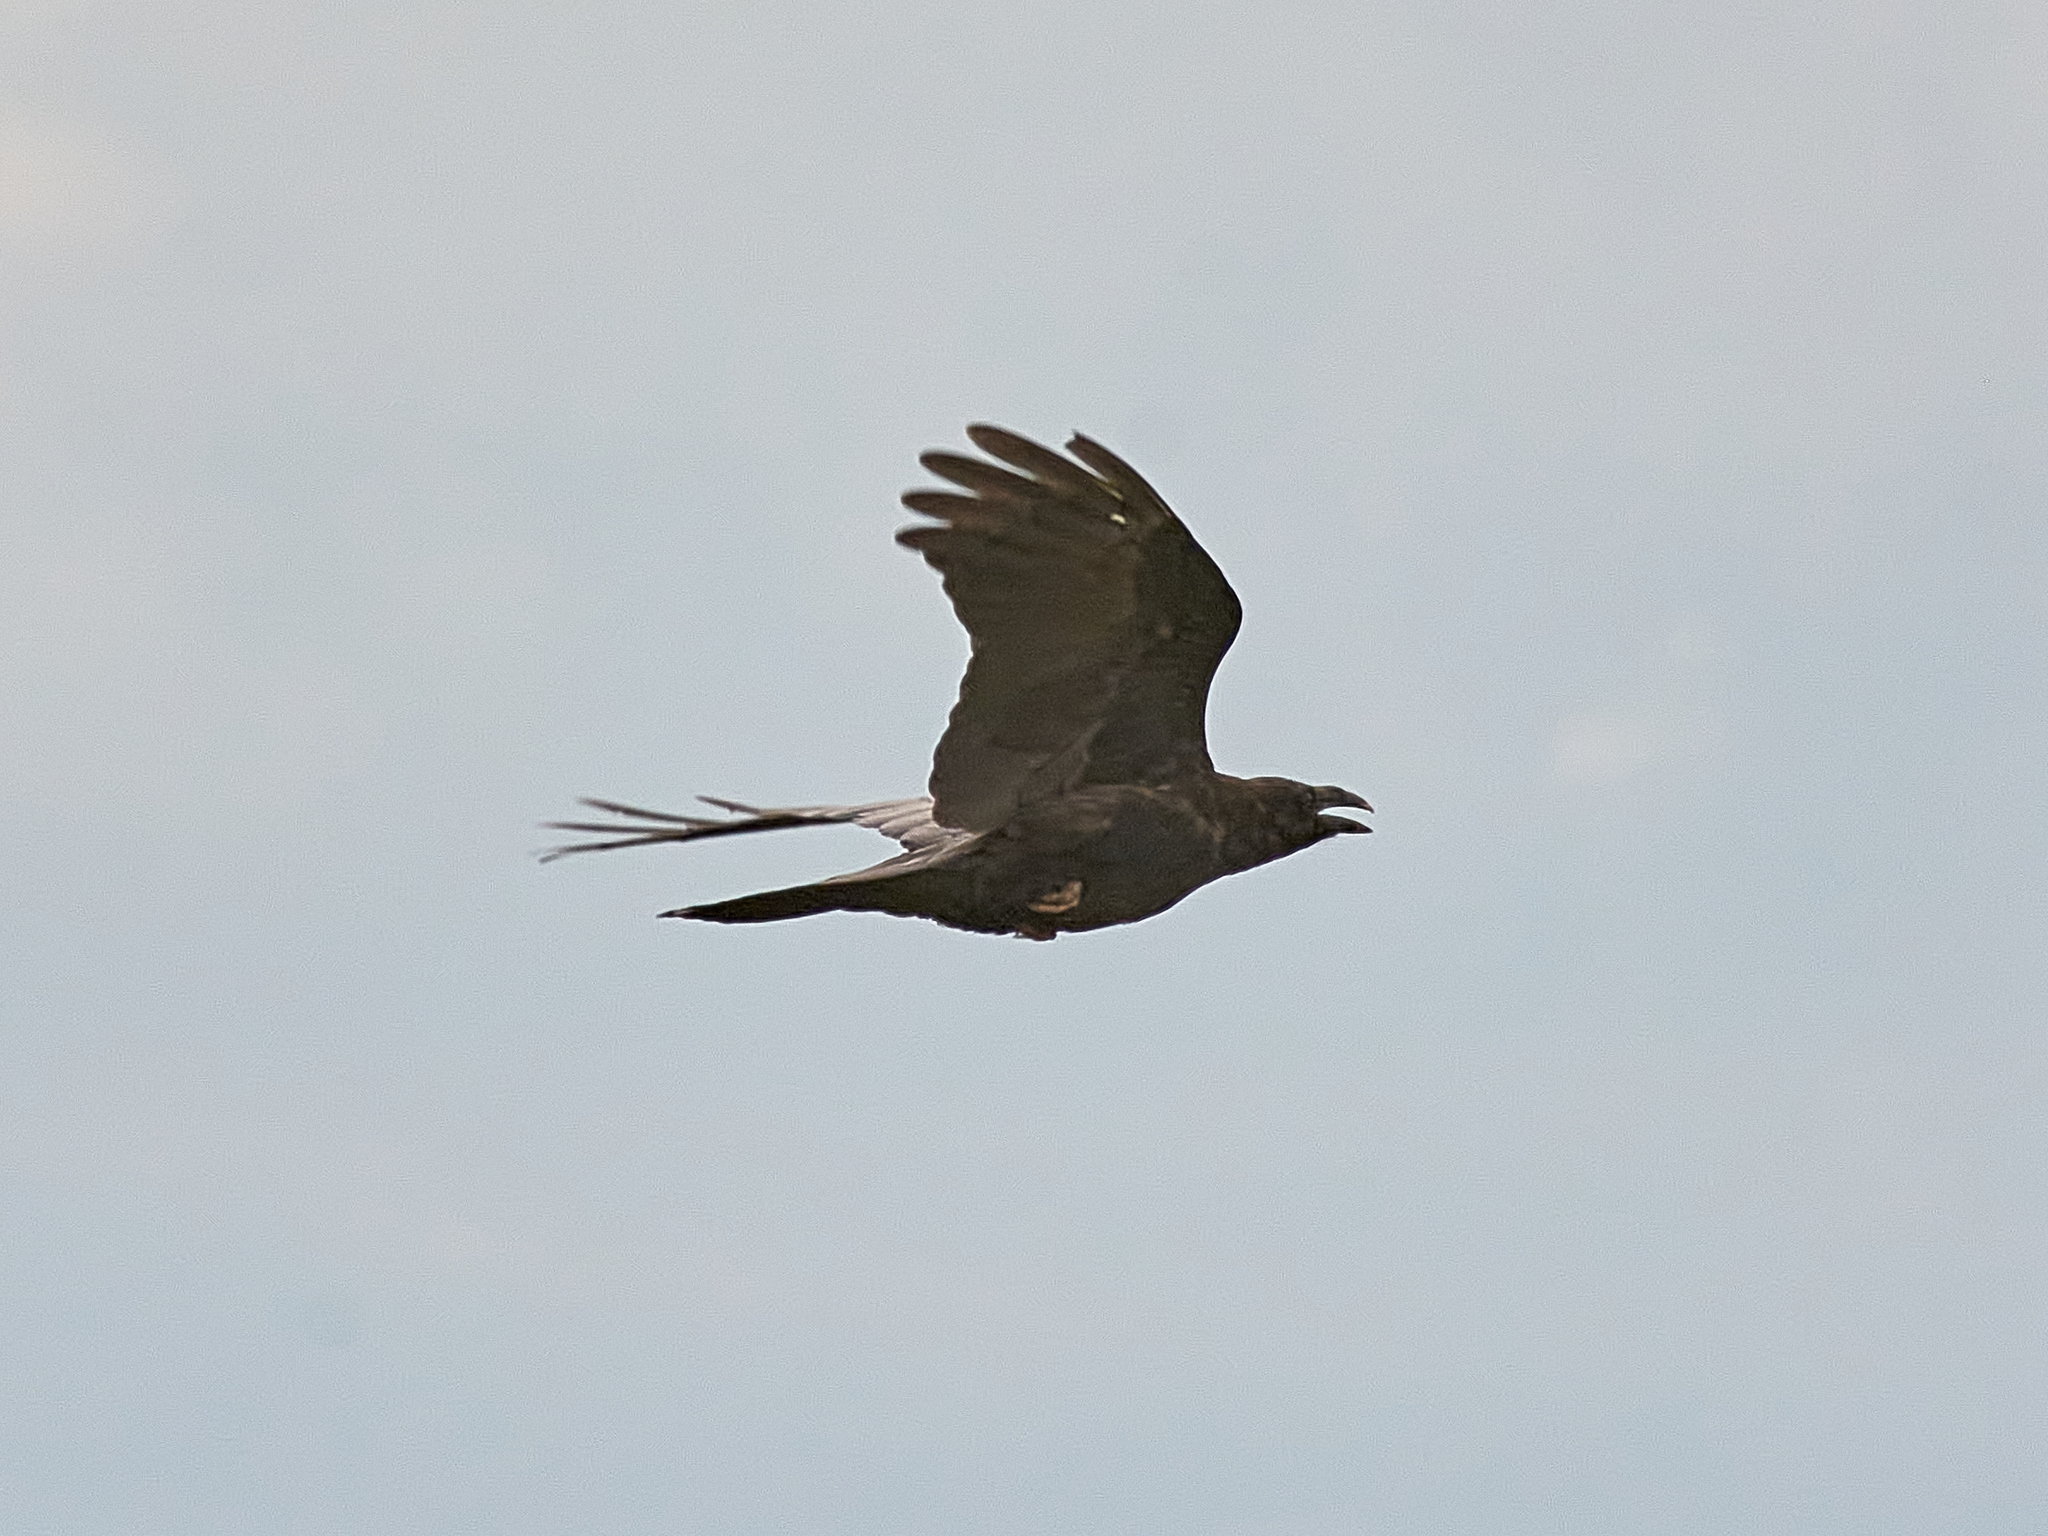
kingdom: Animalia
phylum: Chordata
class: Aves
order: Passeriformes
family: Corvidae
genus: Corvus
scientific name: Corvus corax
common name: Common raven
